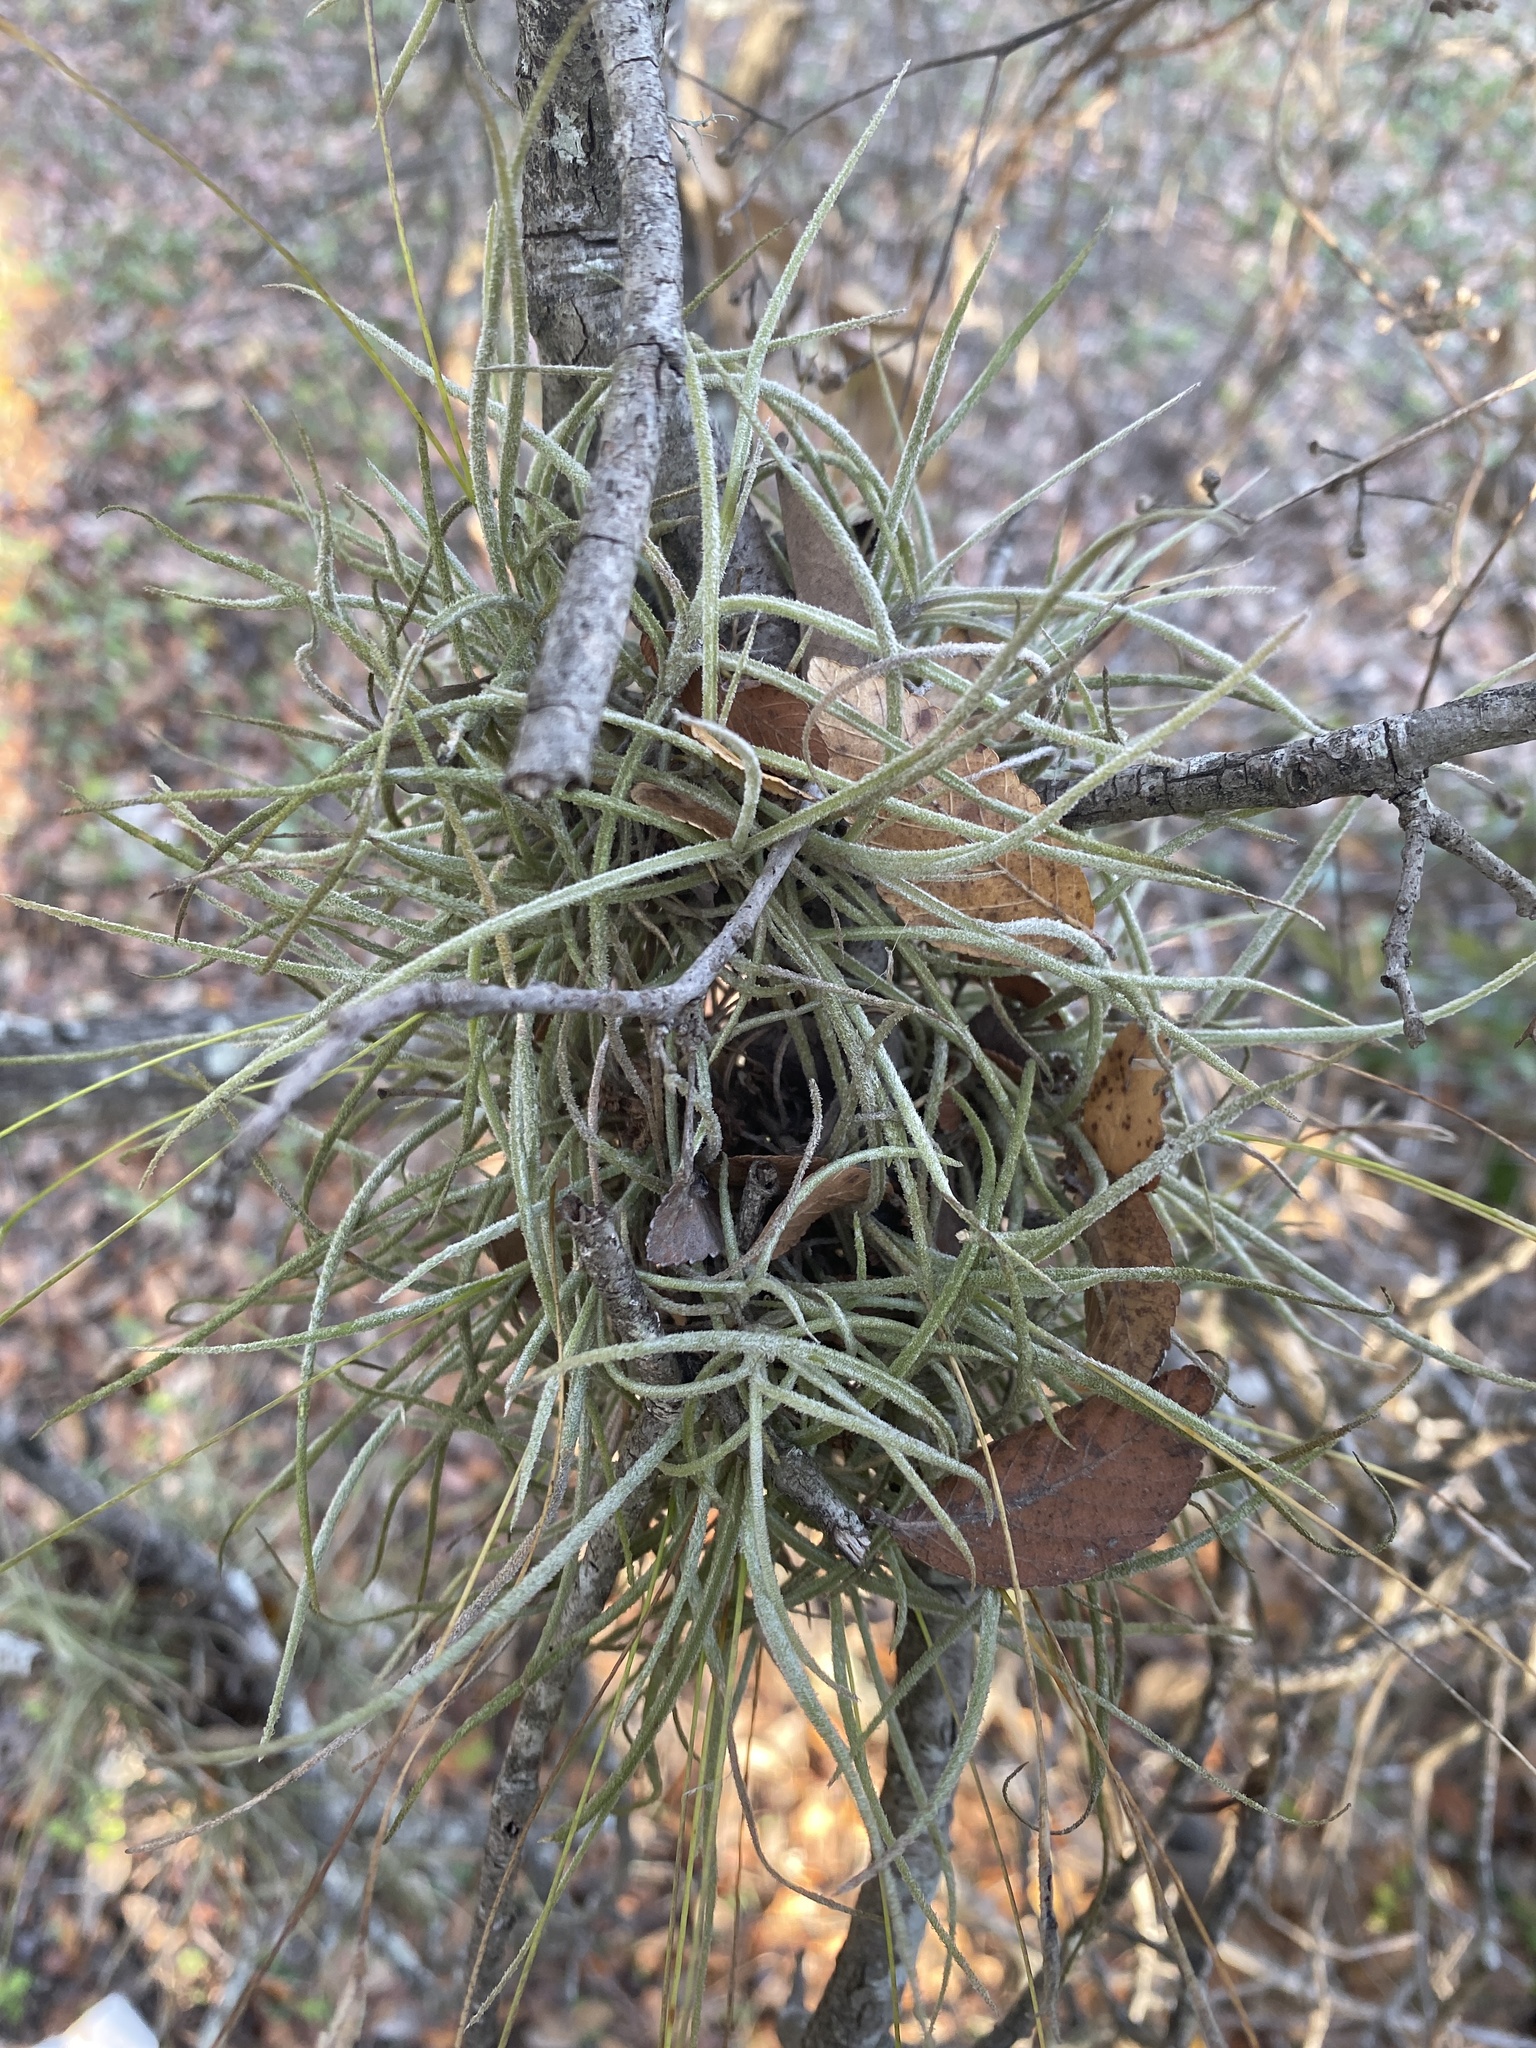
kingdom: Plantae
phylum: Tracheophyta
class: Liliopsida
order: Poales
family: Bromeliaceae
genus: Tillandsia
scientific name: Tillandsia recurvata
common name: Small ballmoss
